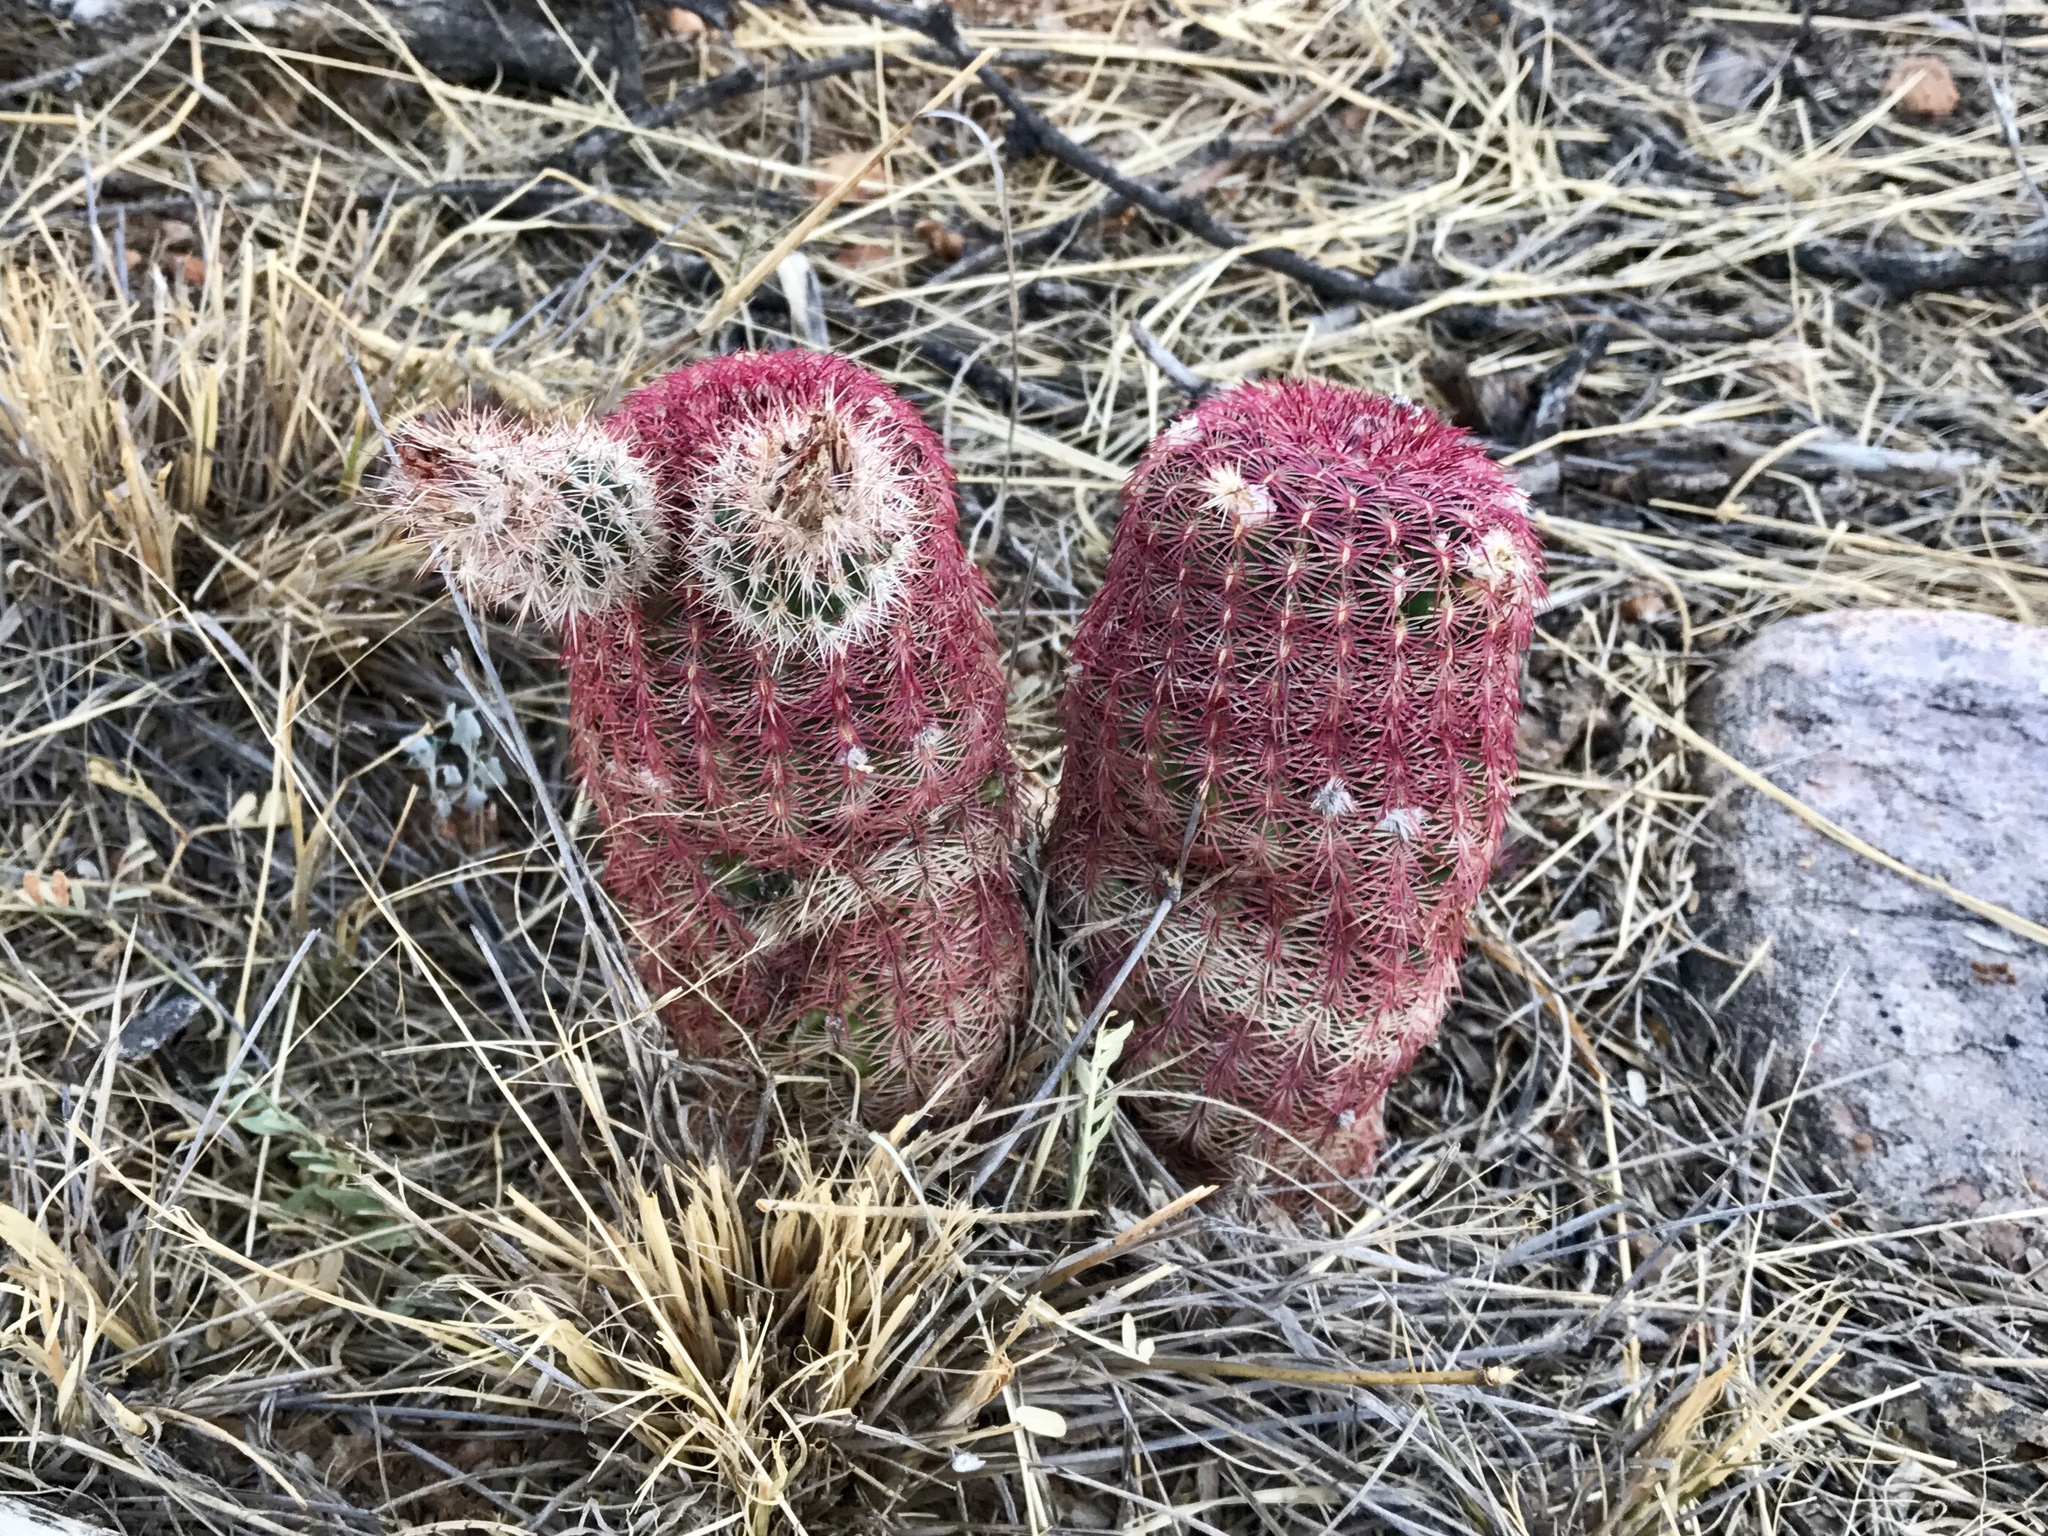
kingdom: Plantae
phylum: Tracheophyta
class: Magnoliopsida
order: Caryophyllales
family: Cactaceae
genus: Echinocereus
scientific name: Echinocereus rigidissimus
